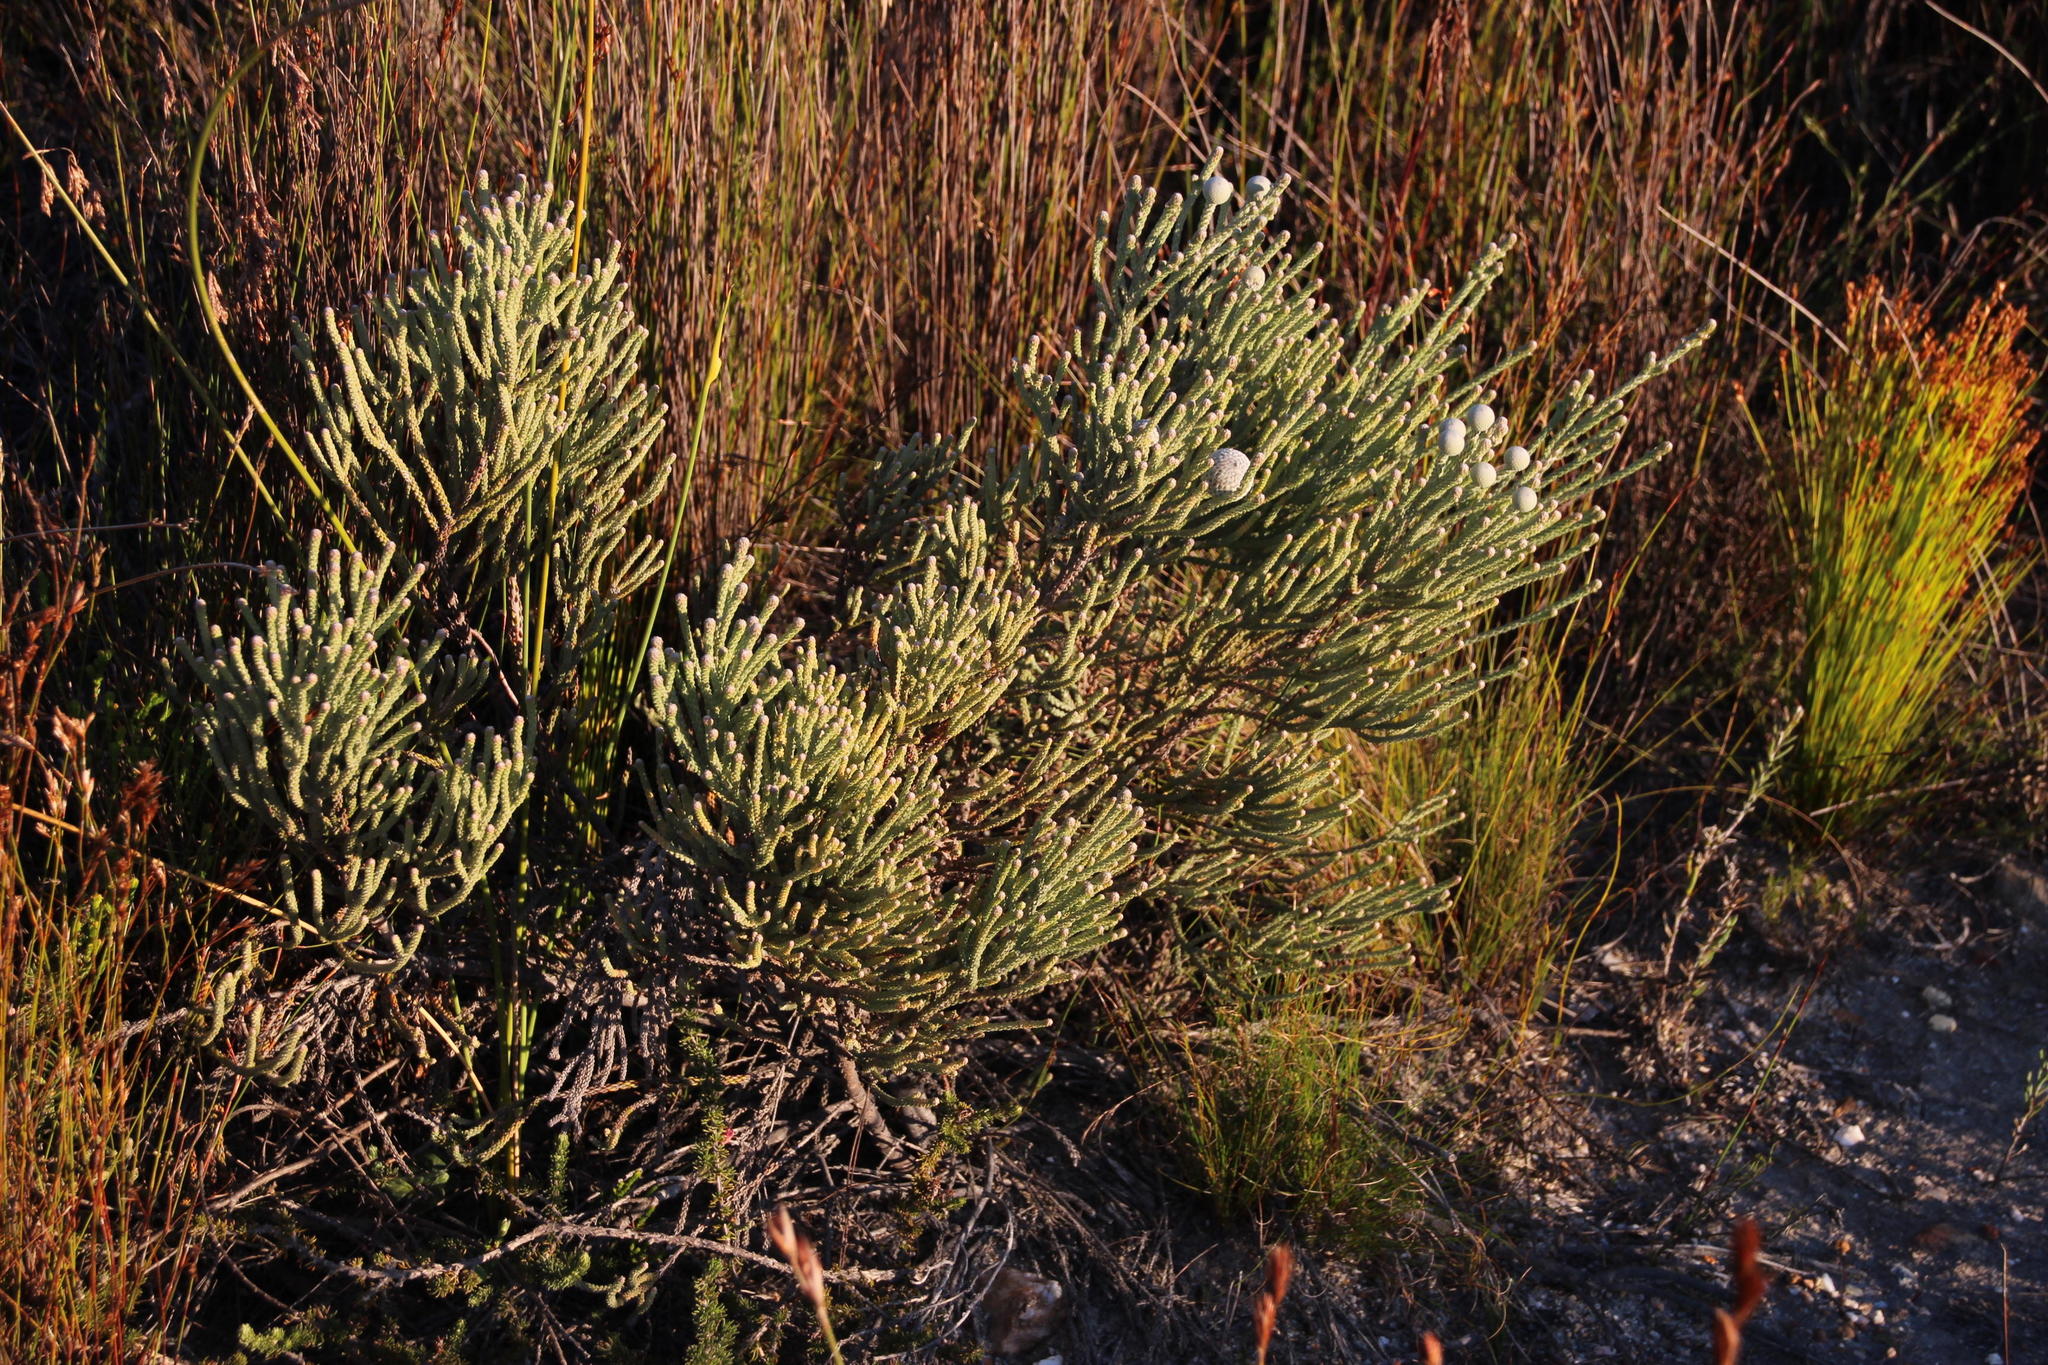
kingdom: Plantae
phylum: Tracheophyta
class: Magnoliopsida
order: Bruniales
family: Bruniaceae
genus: Brunia
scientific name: Brunia laevis
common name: Silver brunia
